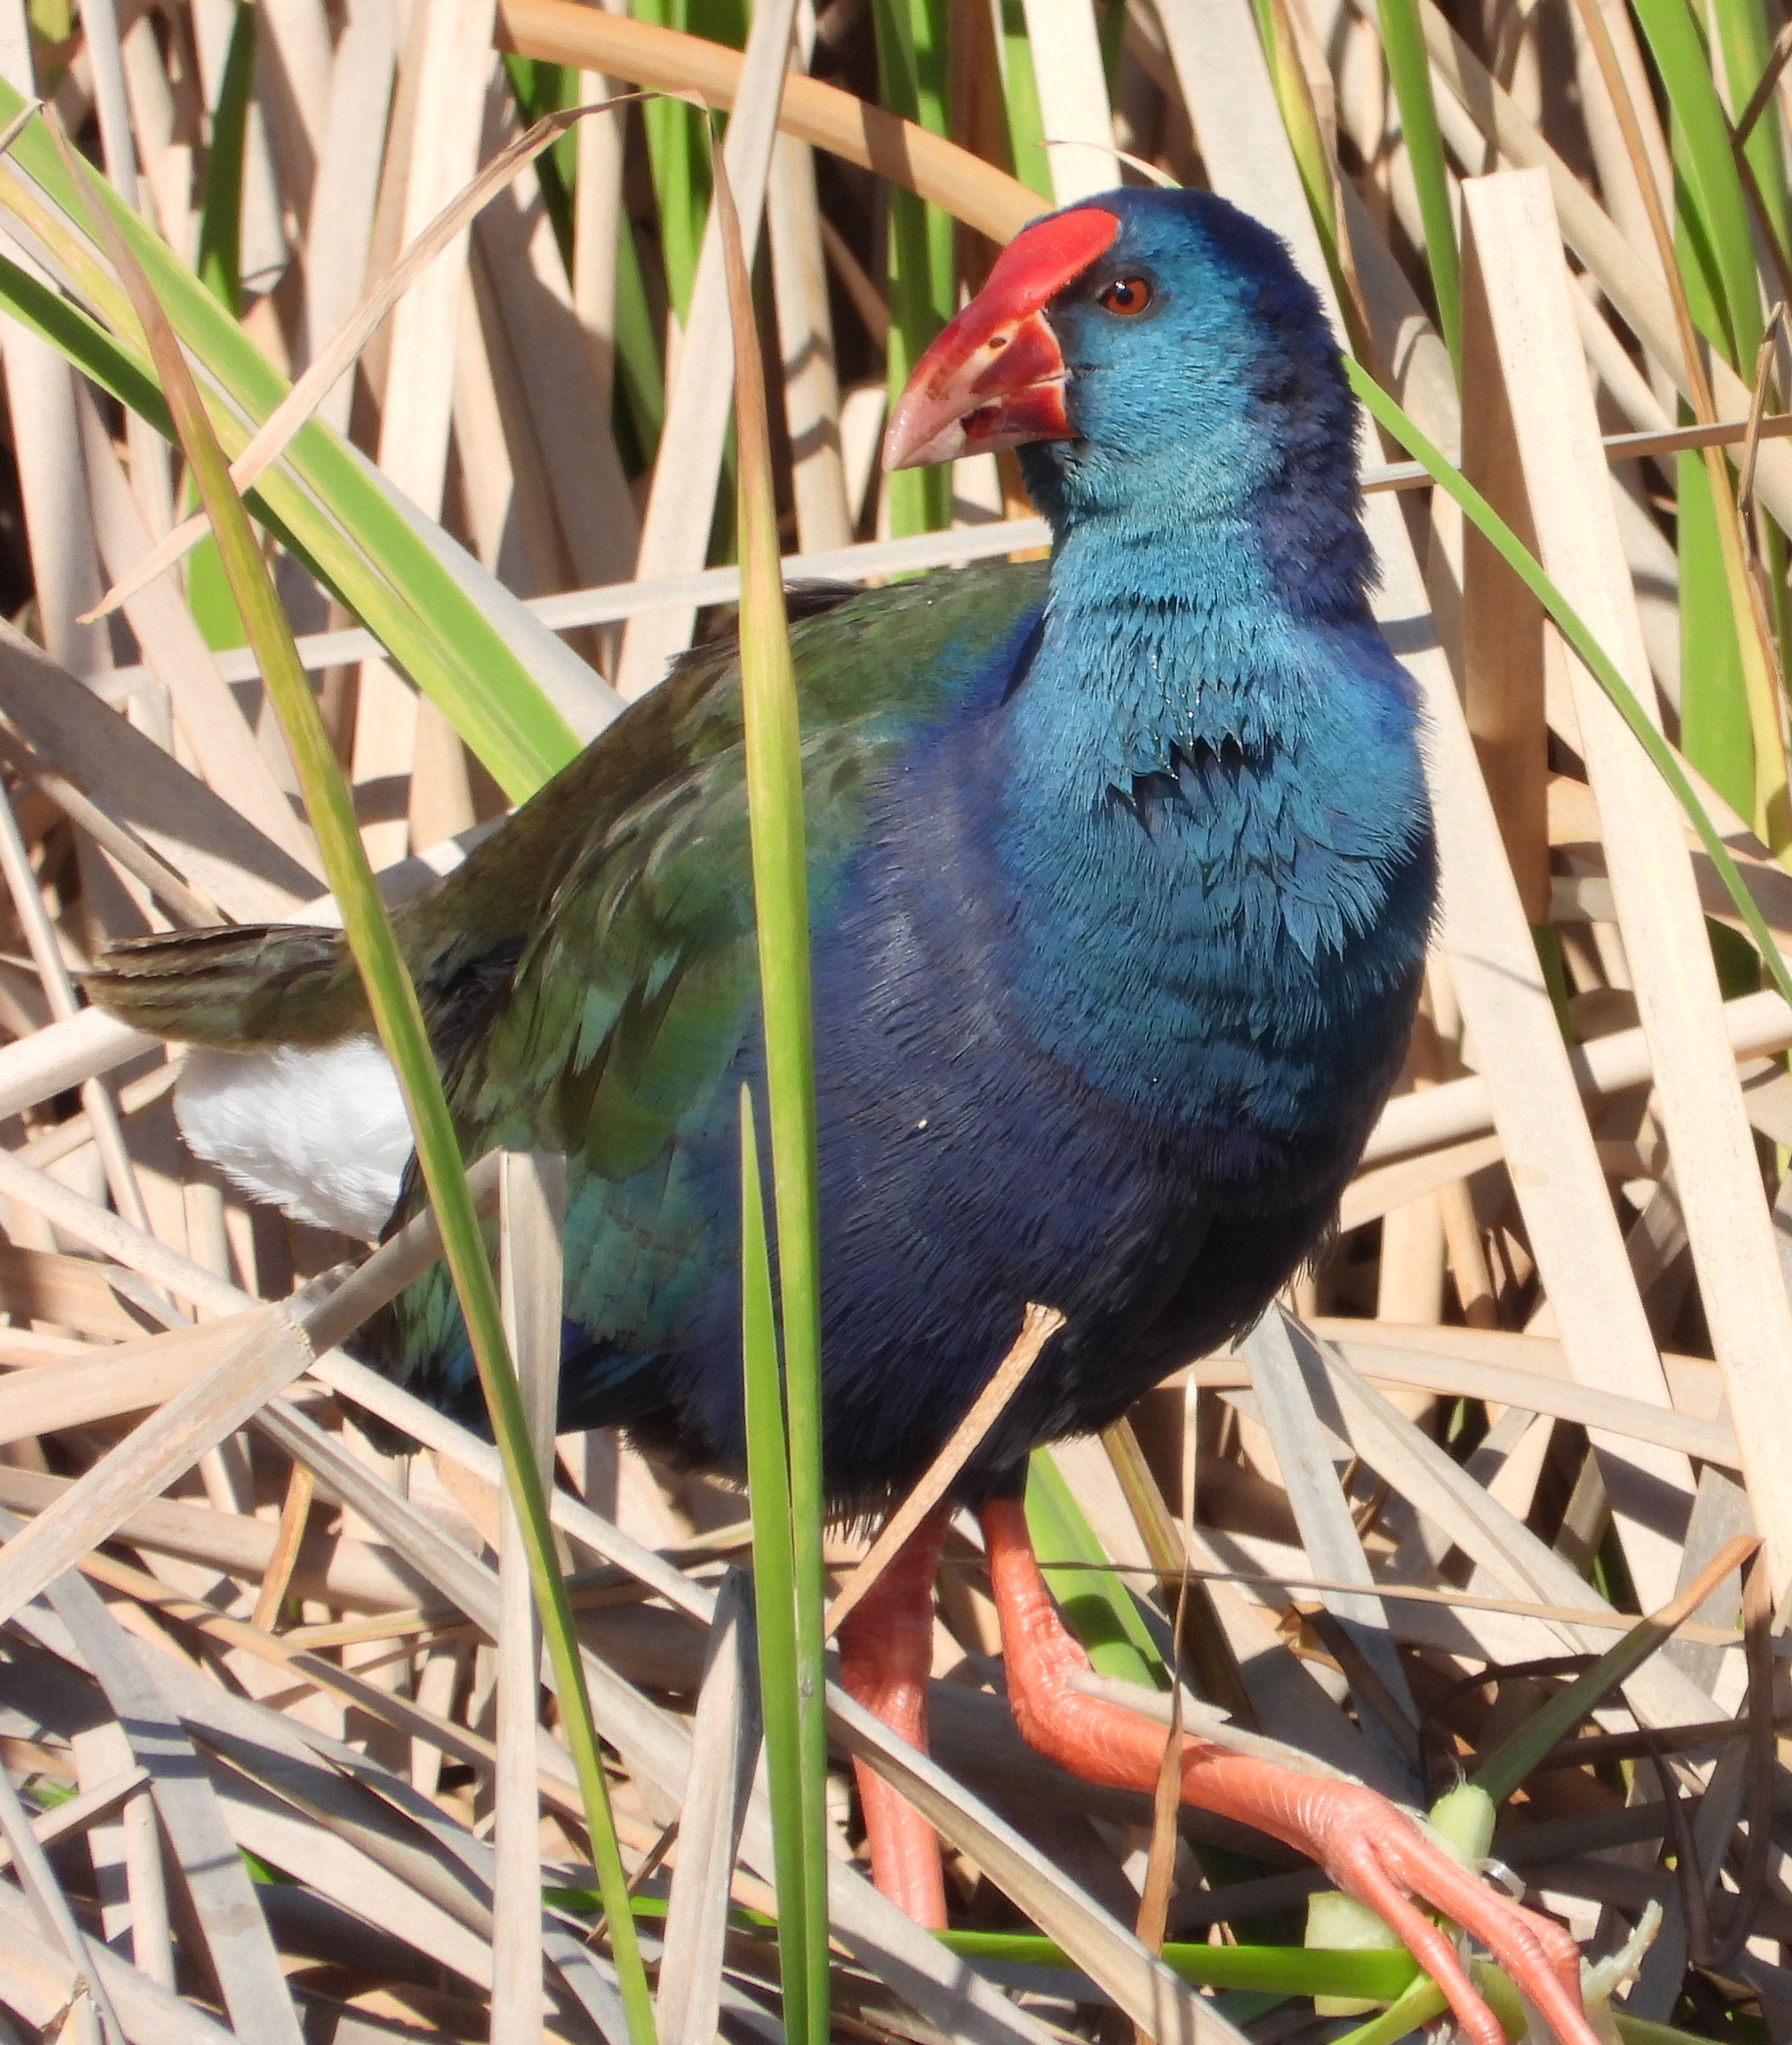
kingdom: Animalia
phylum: Chordata
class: Aves
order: Gruiformes
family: Rallidae
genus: Porphyrio
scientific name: Porphyrio porphyrio
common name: Purple swamphen
